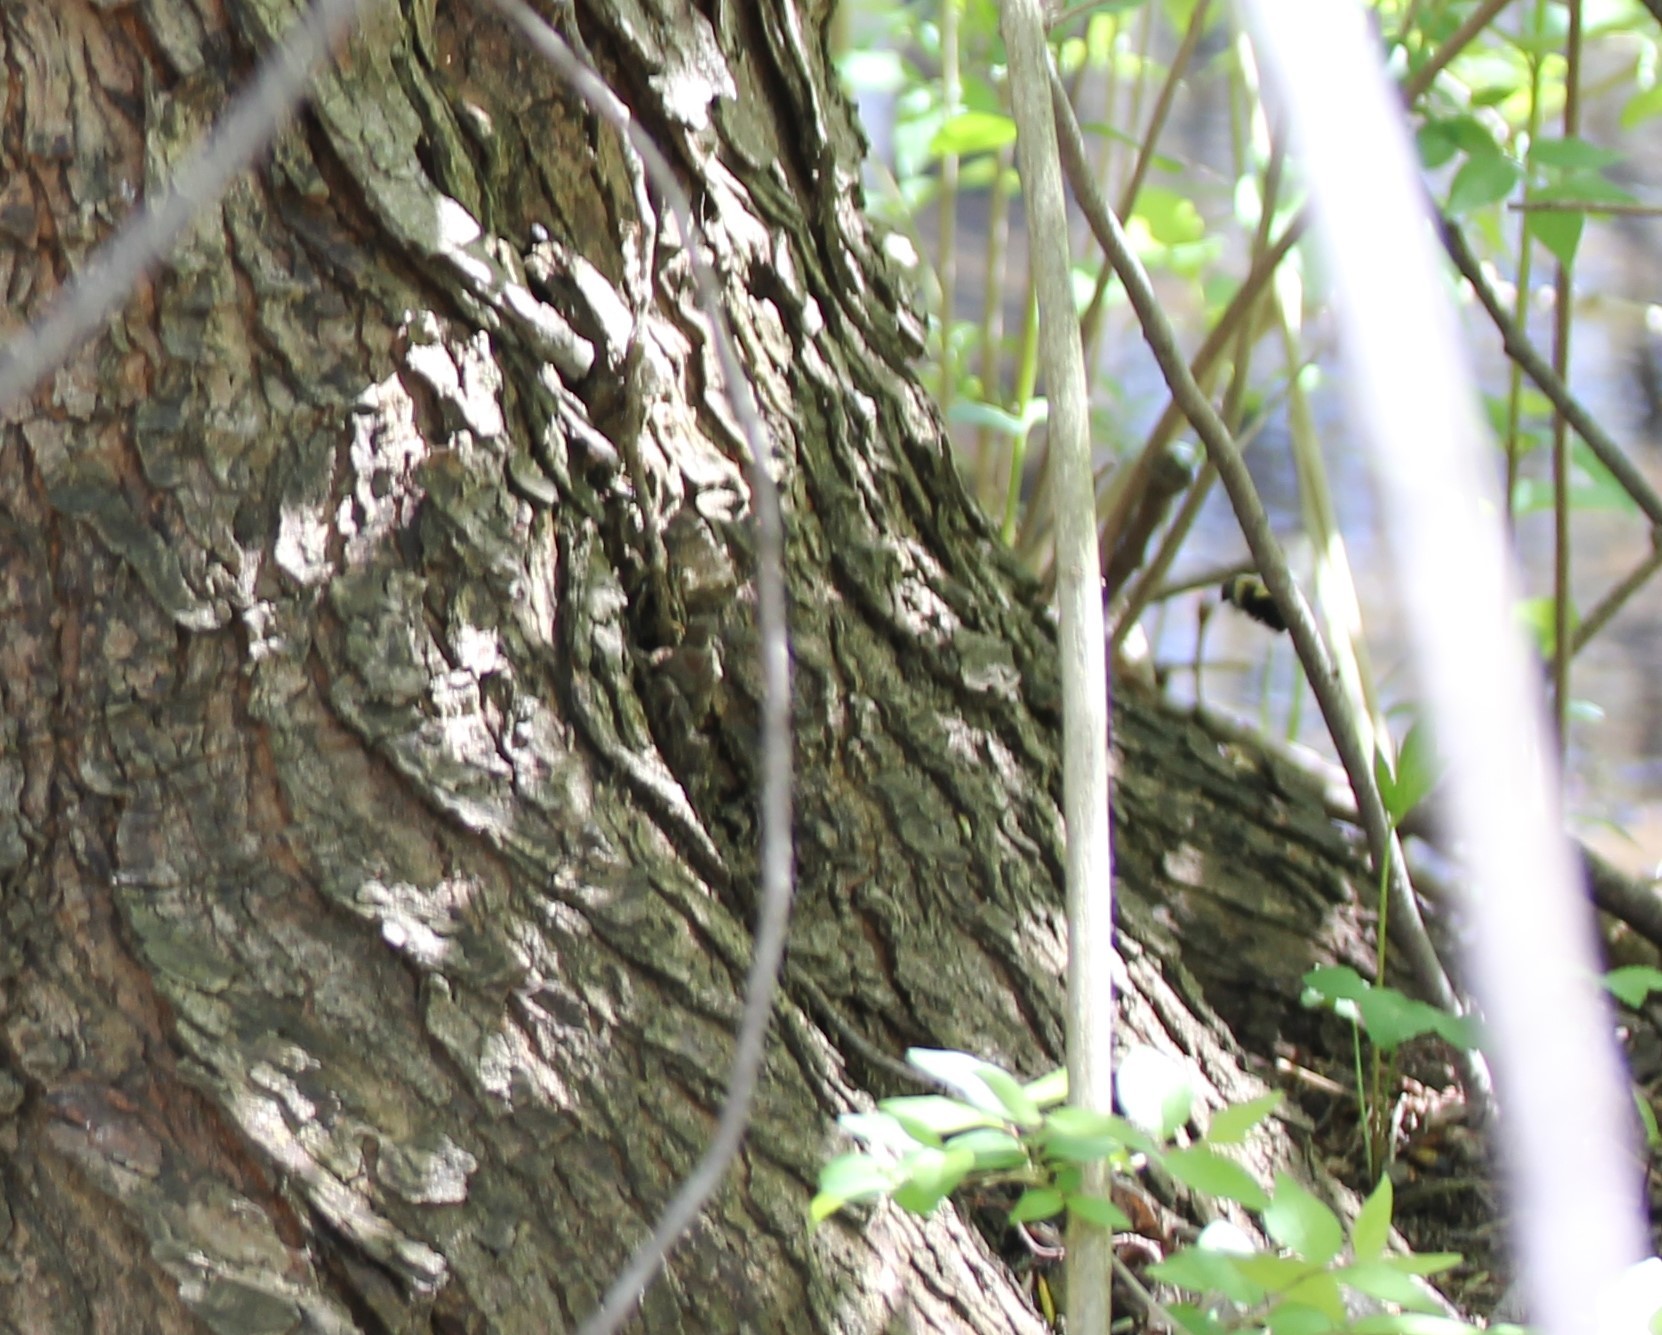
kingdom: Animalia
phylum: Arthropoda
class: Insecta
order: Hymenoptera
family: Apidae
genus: Bombus
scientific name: Bombus
